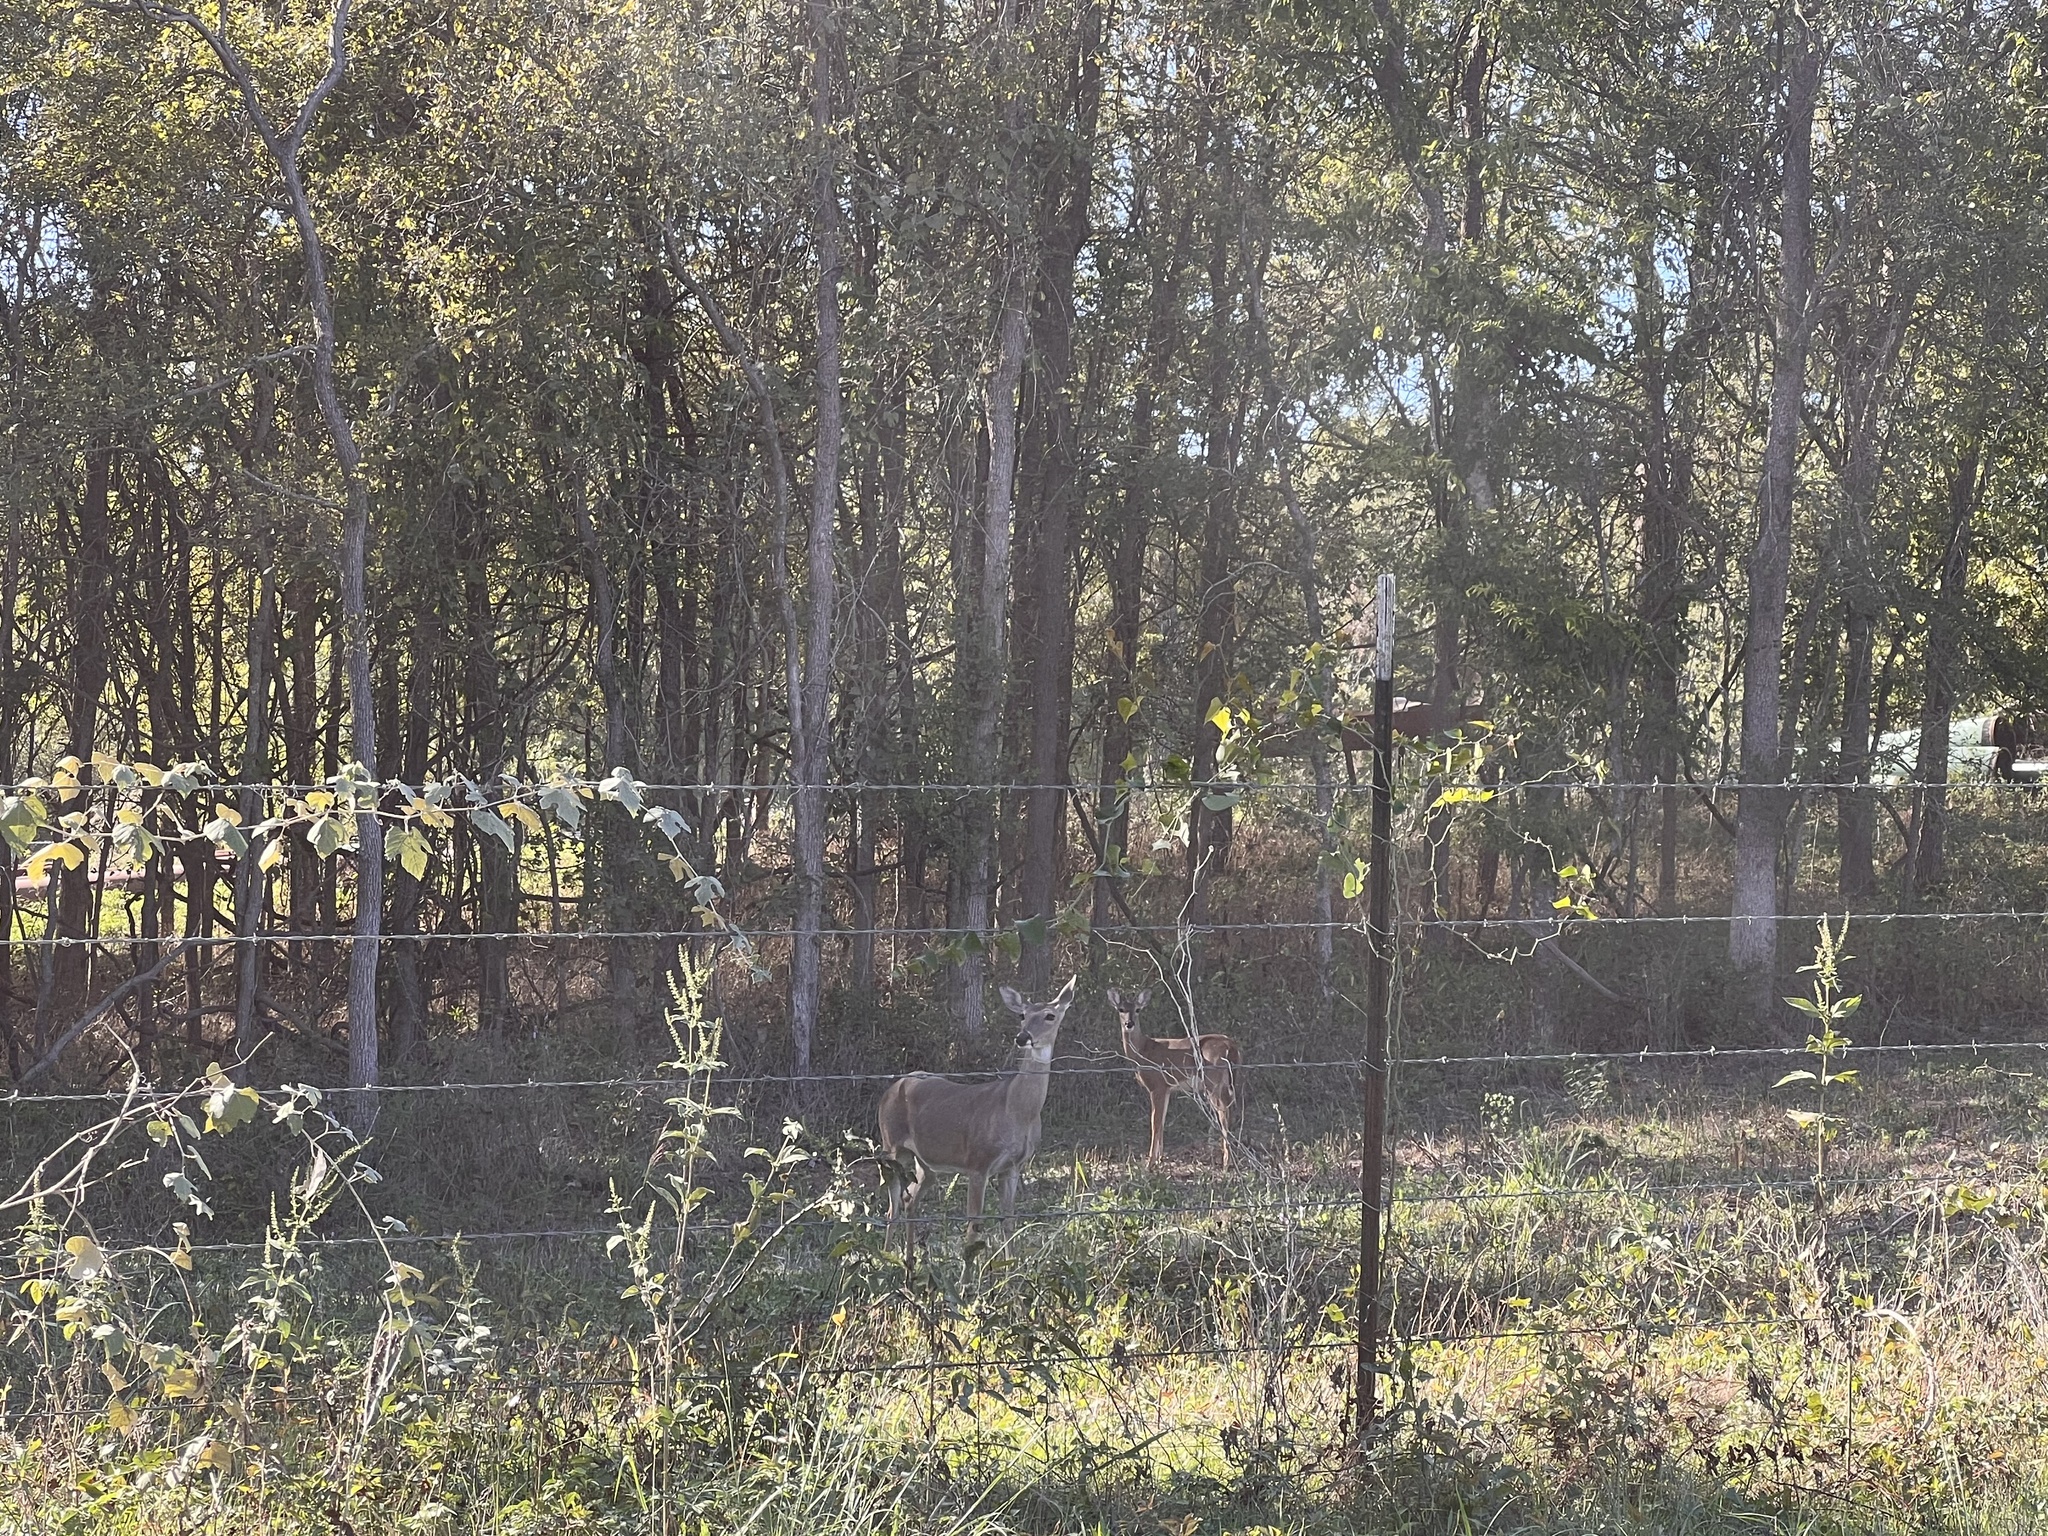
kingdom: Animalia
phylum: Chordata
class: Mammalia
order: Artiodactyla
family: Cervidae
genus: Odocoileus
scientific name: Odocoileus virginianus
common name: White-tailed deer
